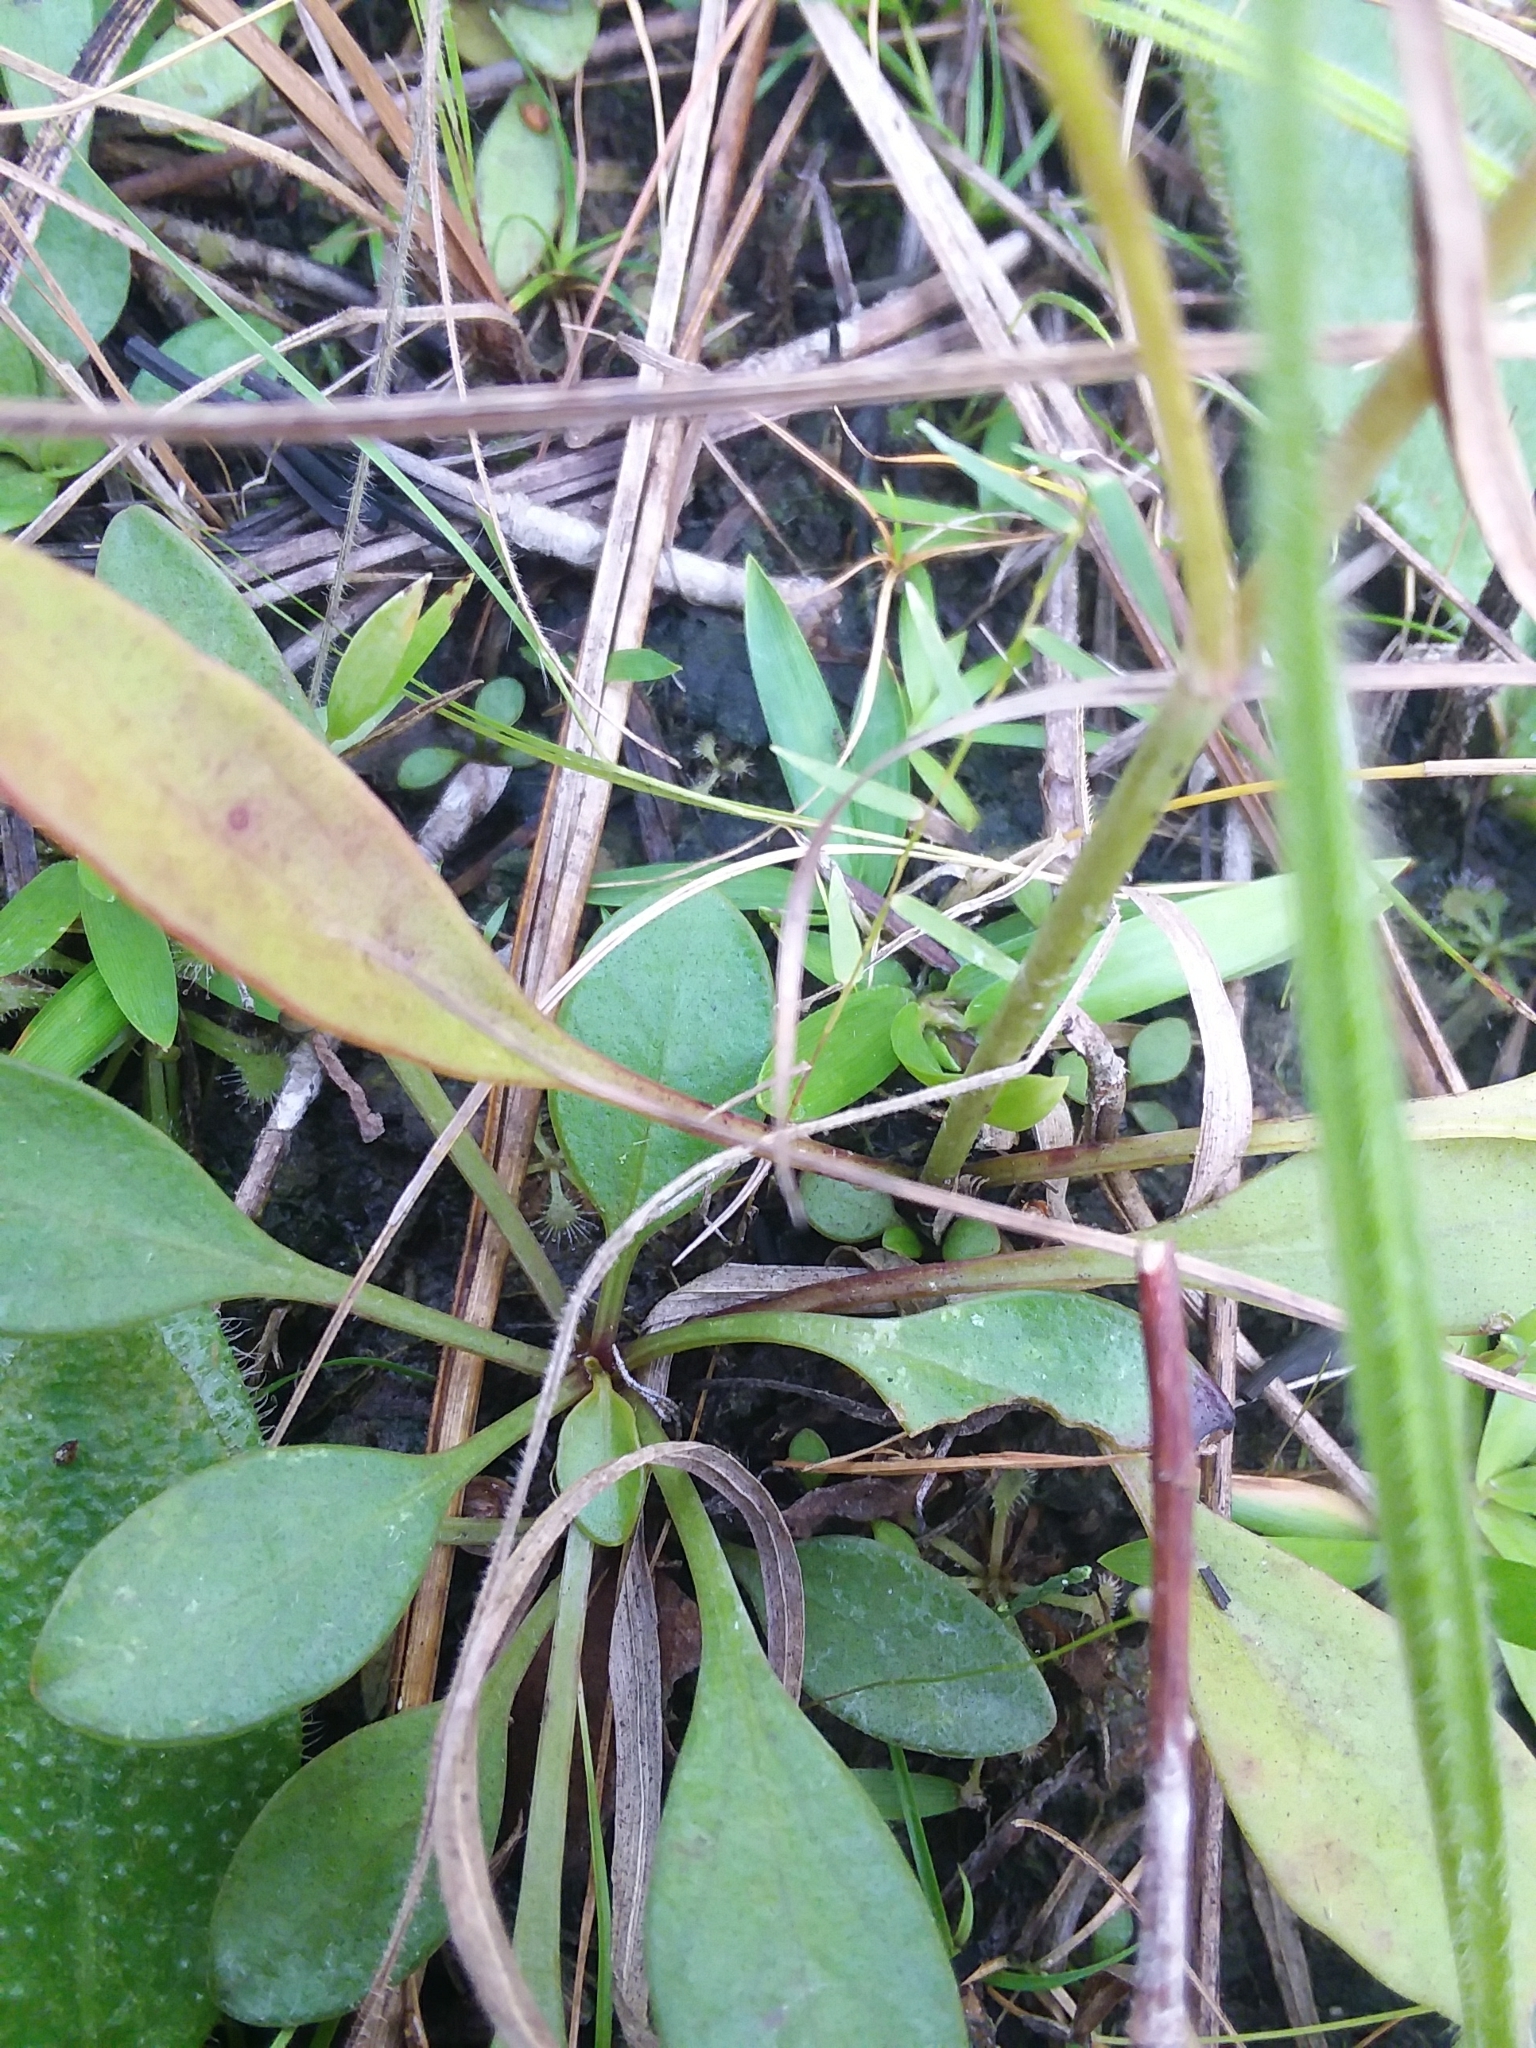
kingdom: Plantae
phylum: Tracheophyta
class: Magnoliopsida
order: Asterales
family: Asteraceae
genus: Coreopsis
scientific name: Coreopsis gladiata
